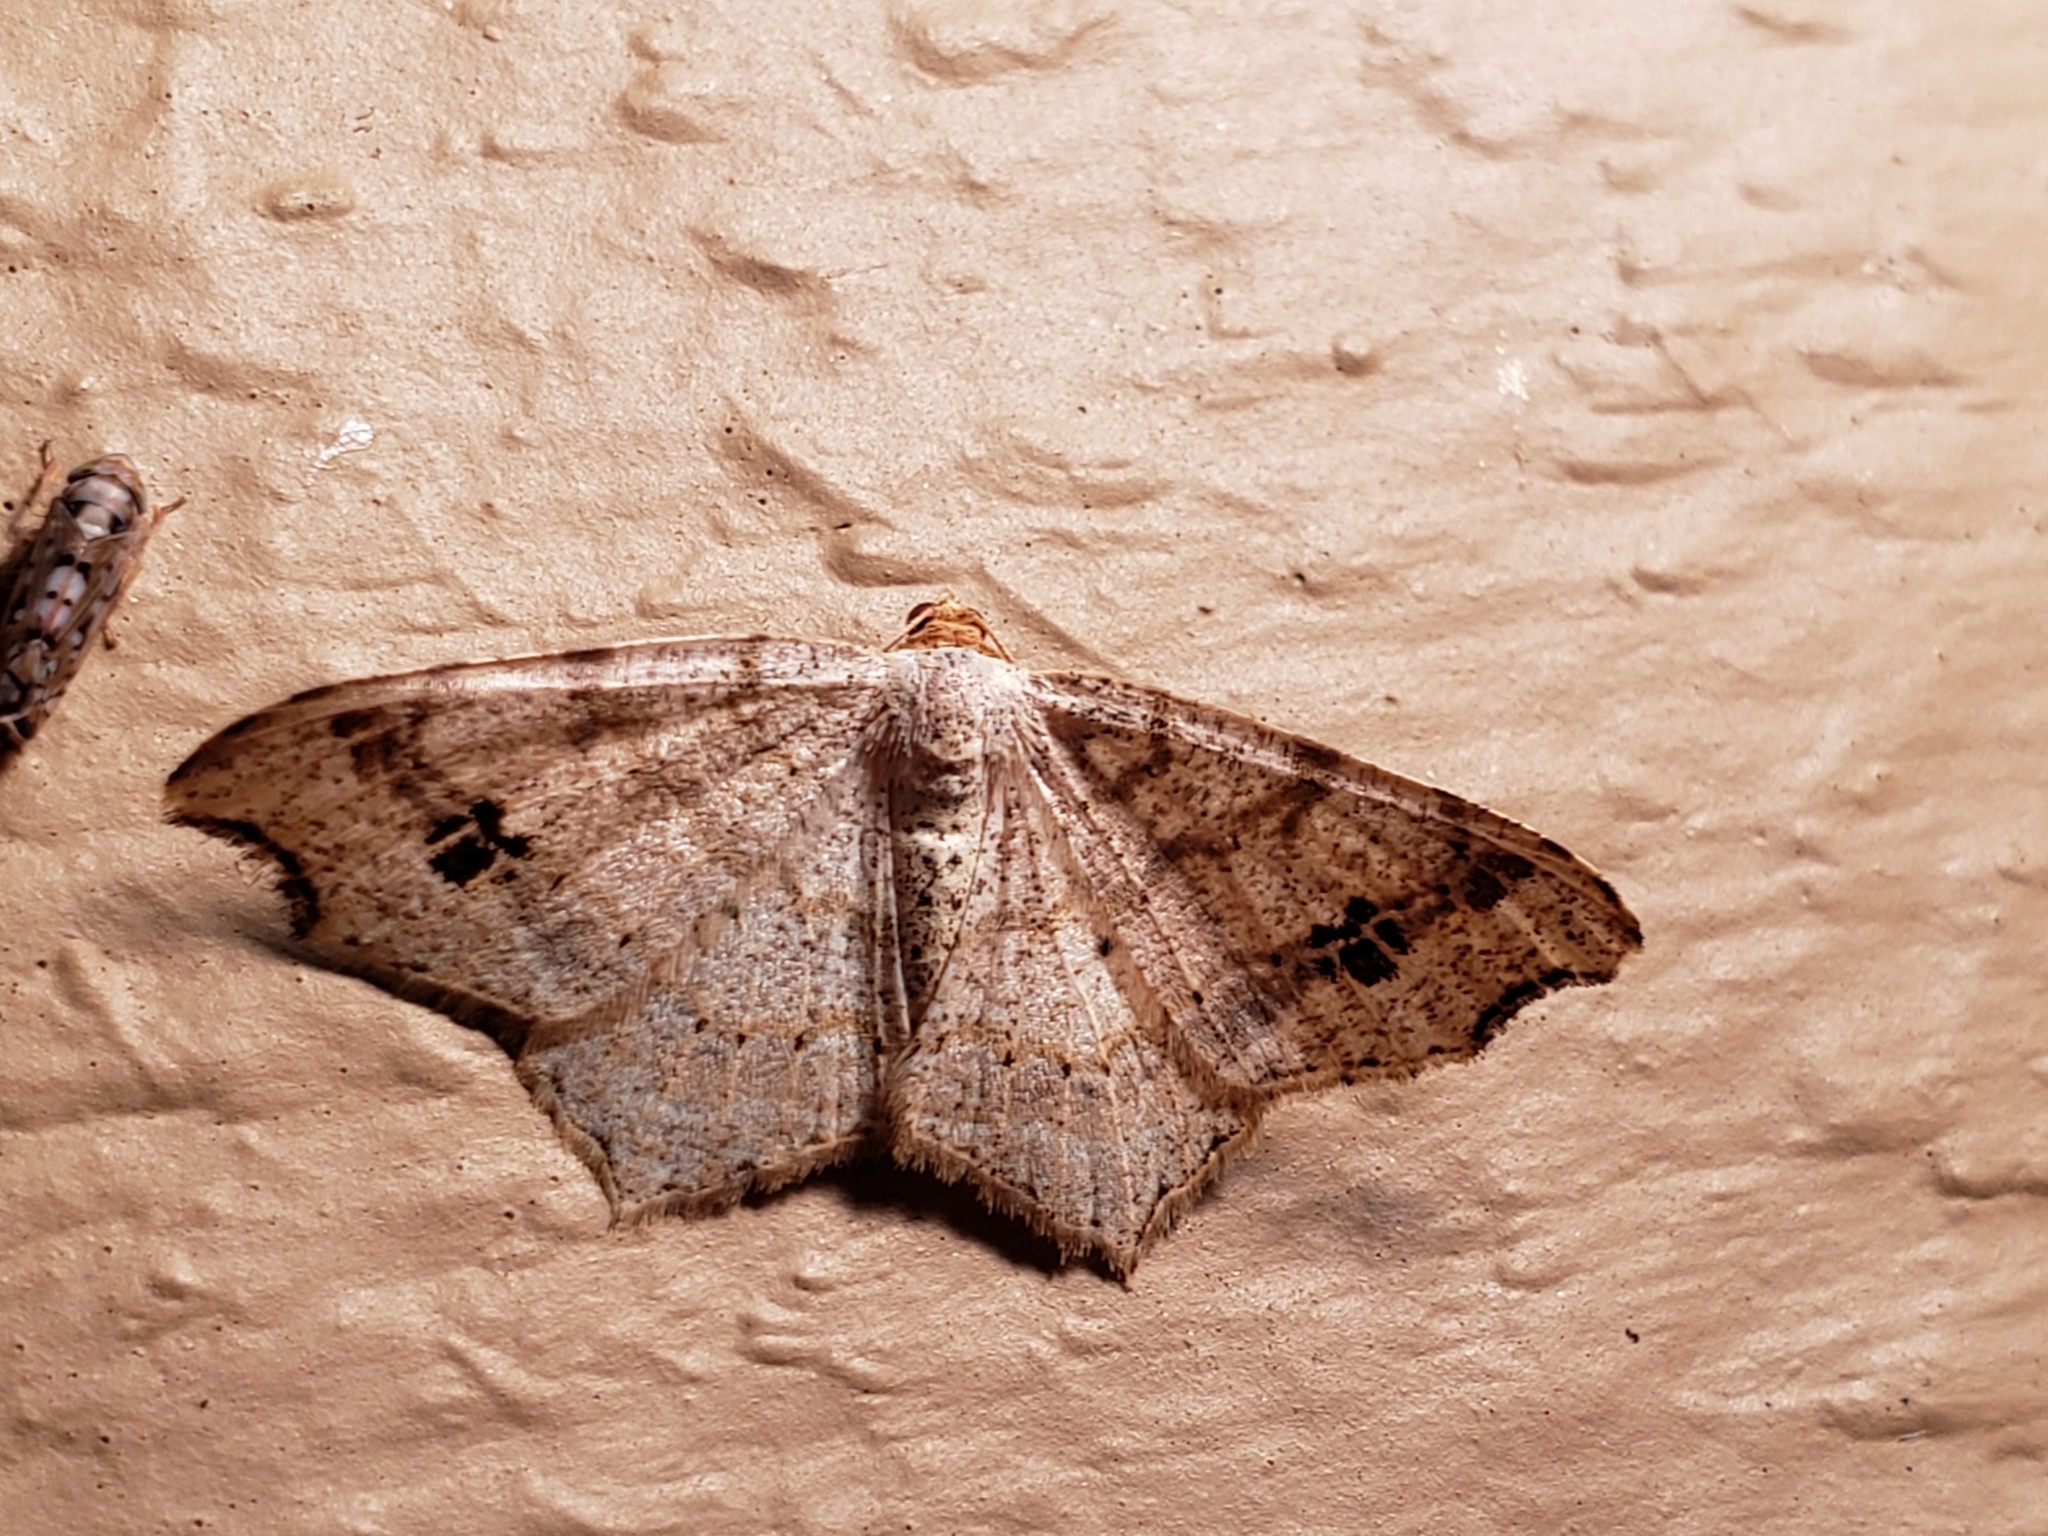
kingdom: Animalia
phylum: Arthropoda
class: Insecta
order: Lepidoptera
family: Geometridae
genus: Macaria
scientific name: Macaria aemulataria
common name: Common angle
